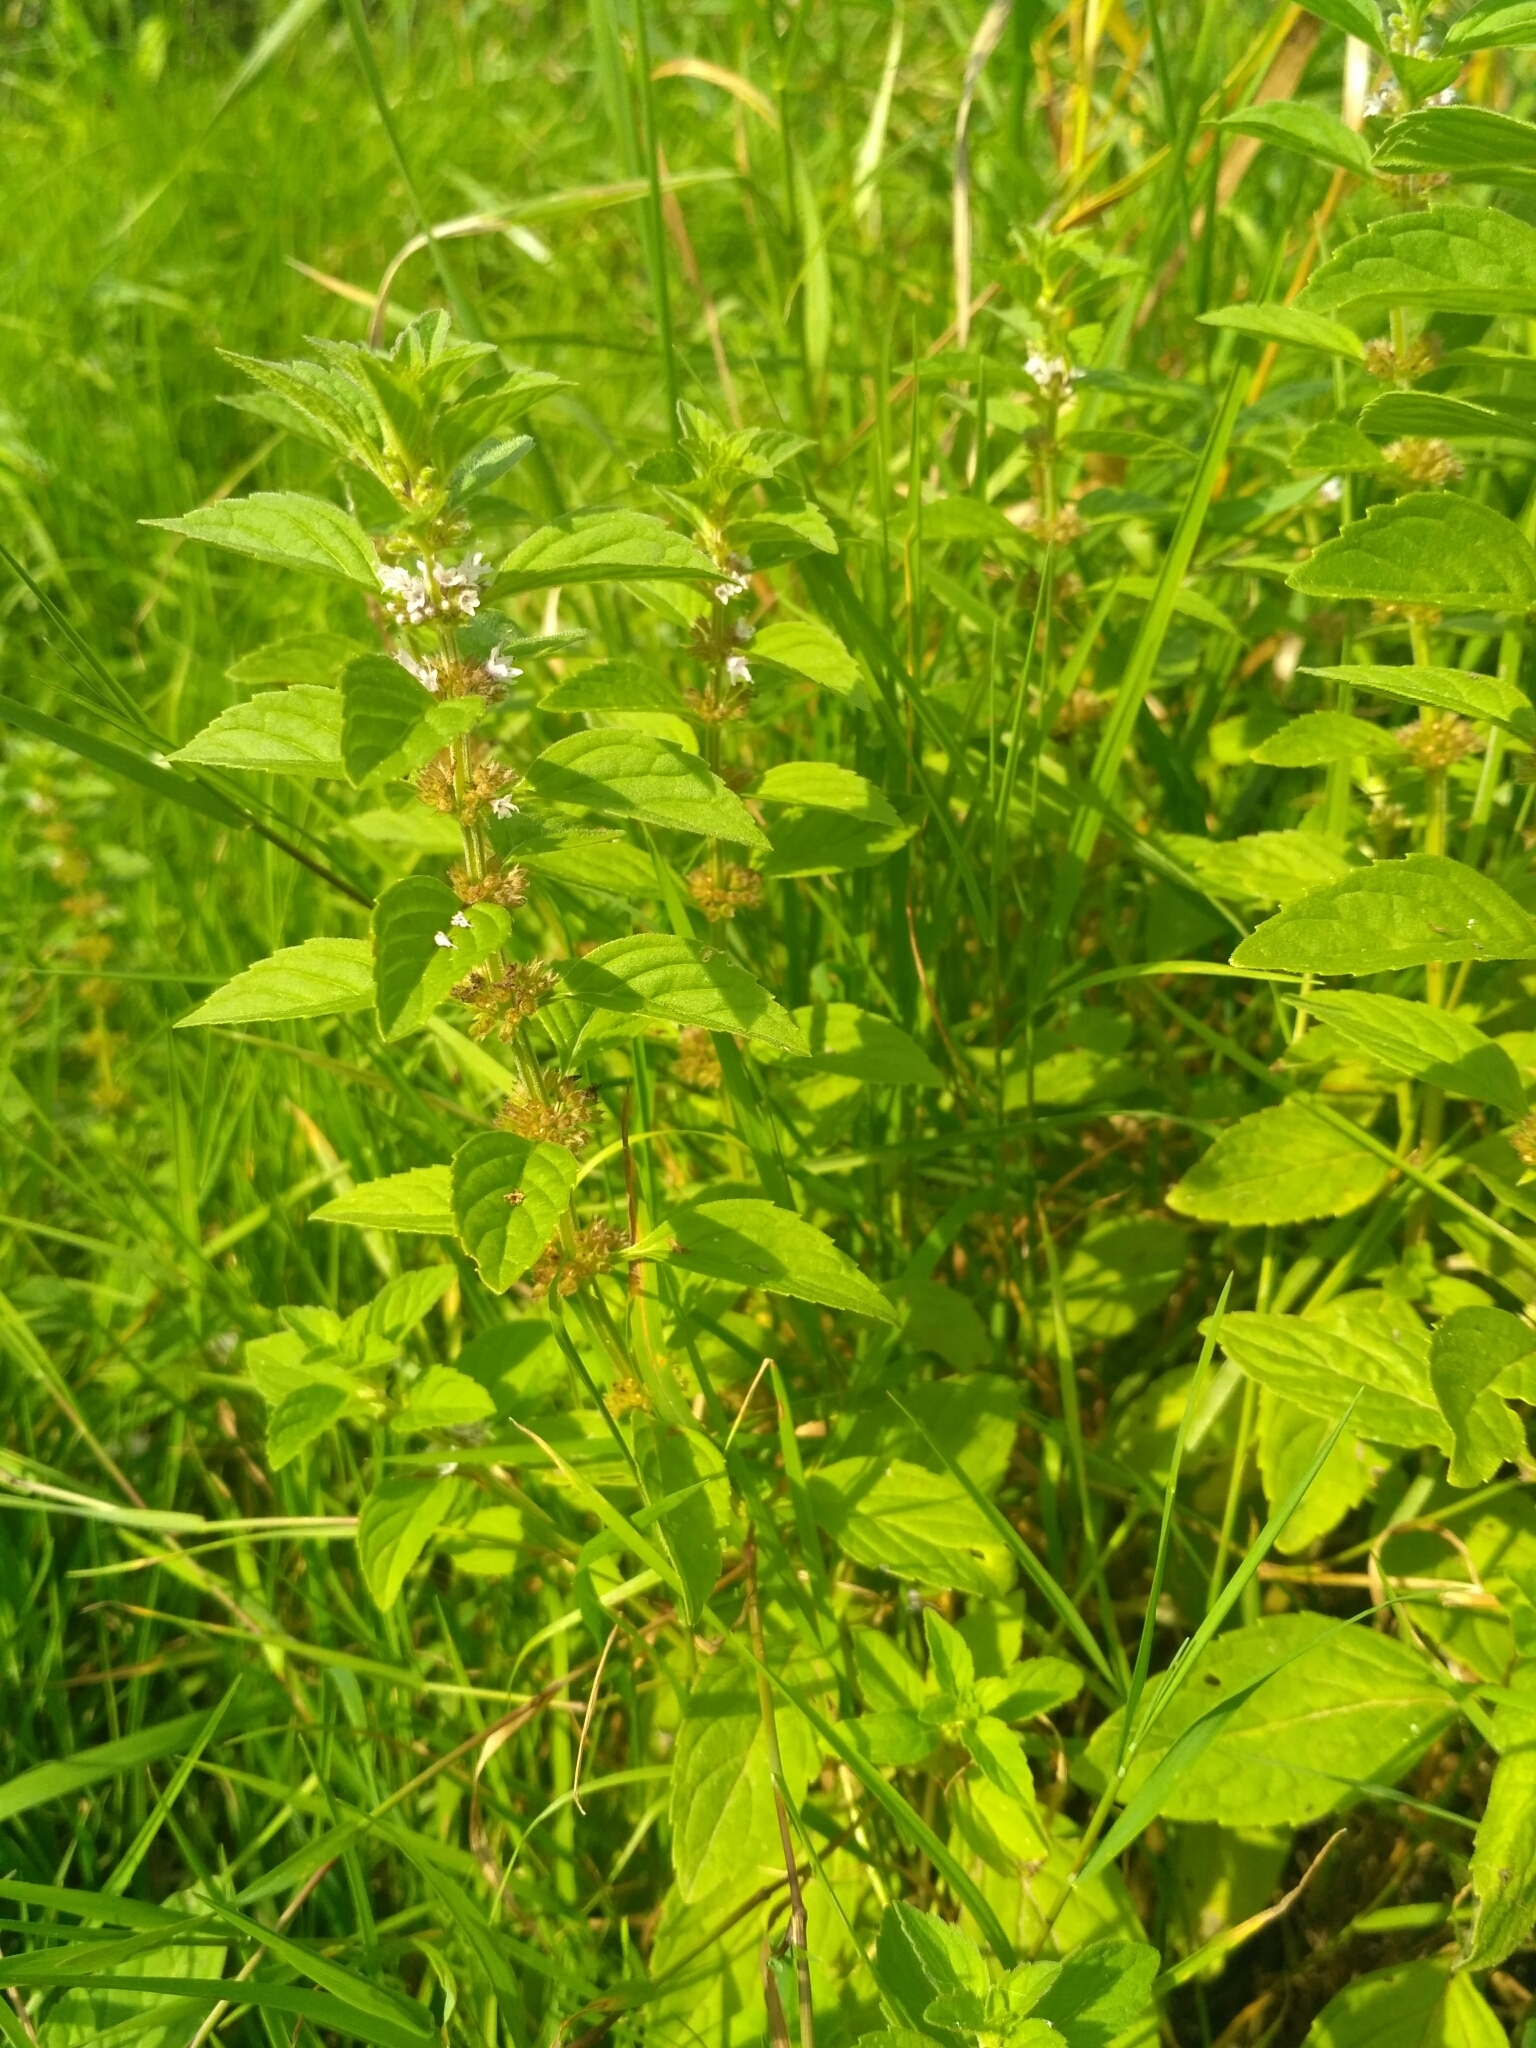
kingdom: Plantae
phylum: Tracheophyta
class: Magnoliopsida
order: Lamiales
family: Lamiaceae
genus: Mentha
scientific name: Mentha arvensis
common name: Corn mint
